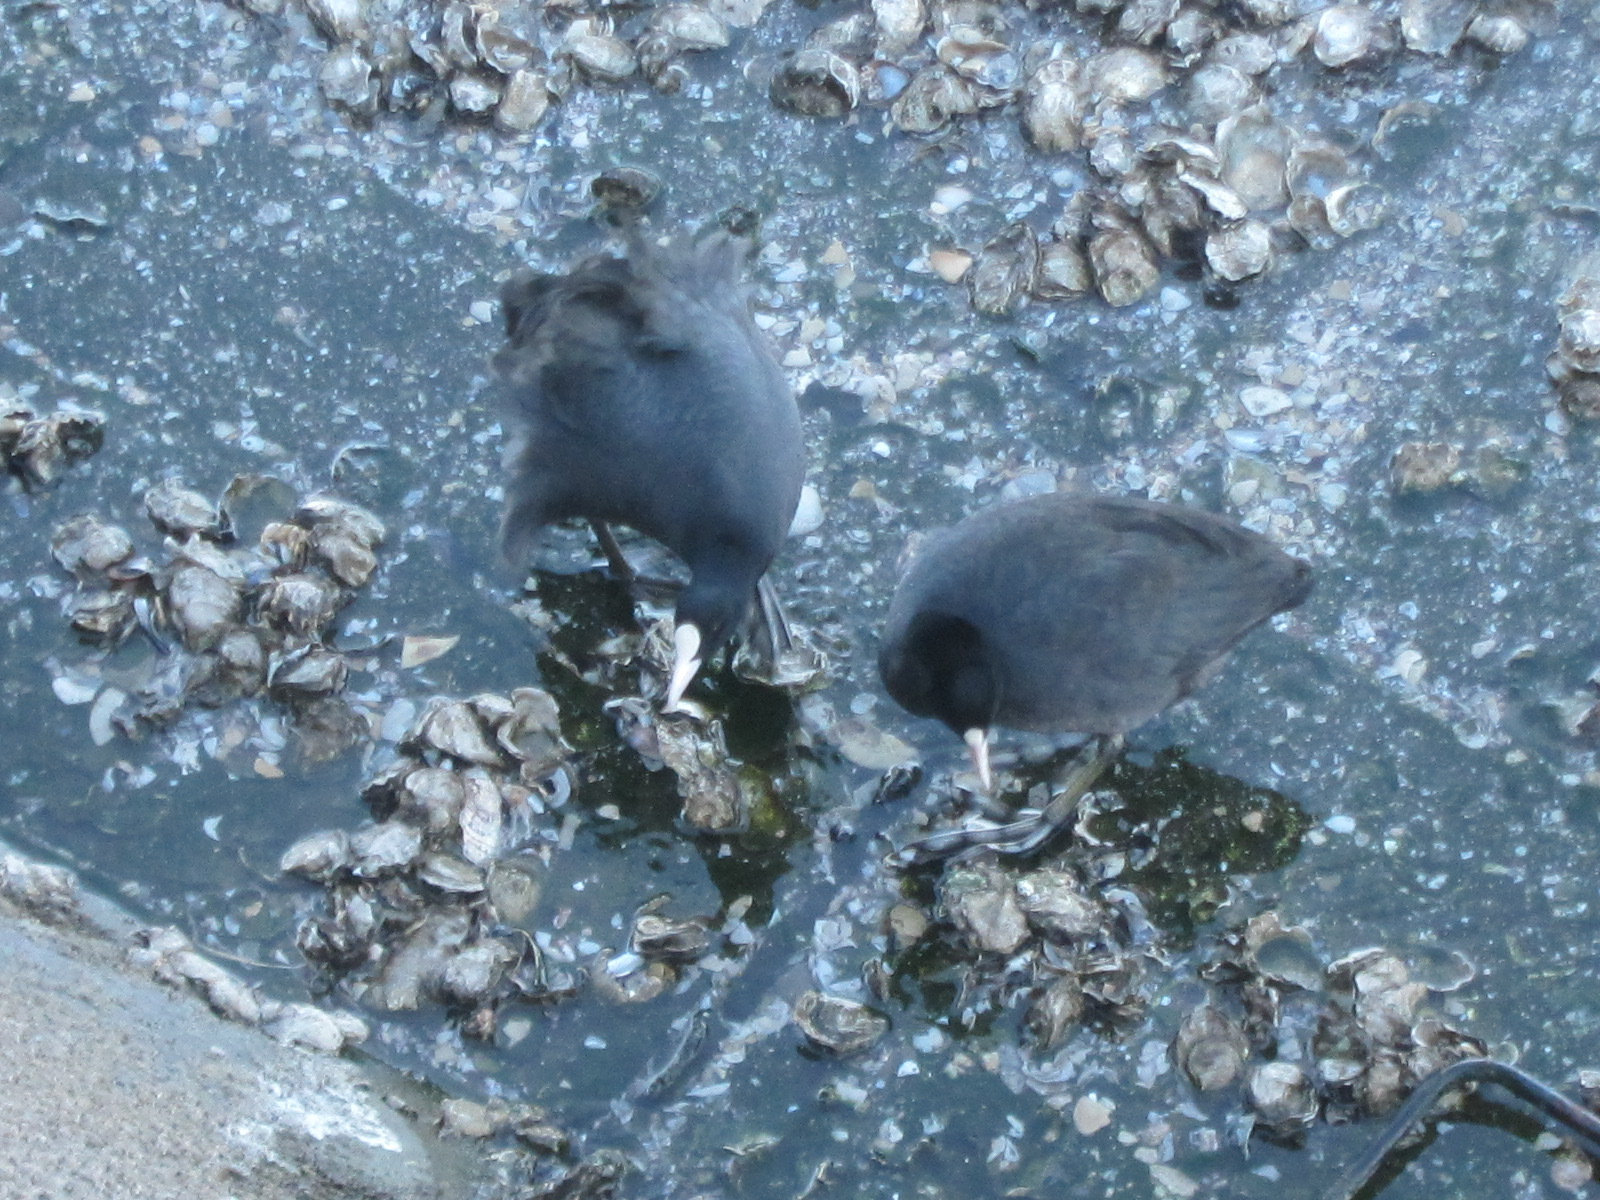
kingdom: Animalia
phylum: Chordata
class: Aves
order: Gruiformes
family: Rallidae
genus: Fulica
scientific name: Fulica atra
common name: Eurasian coot
